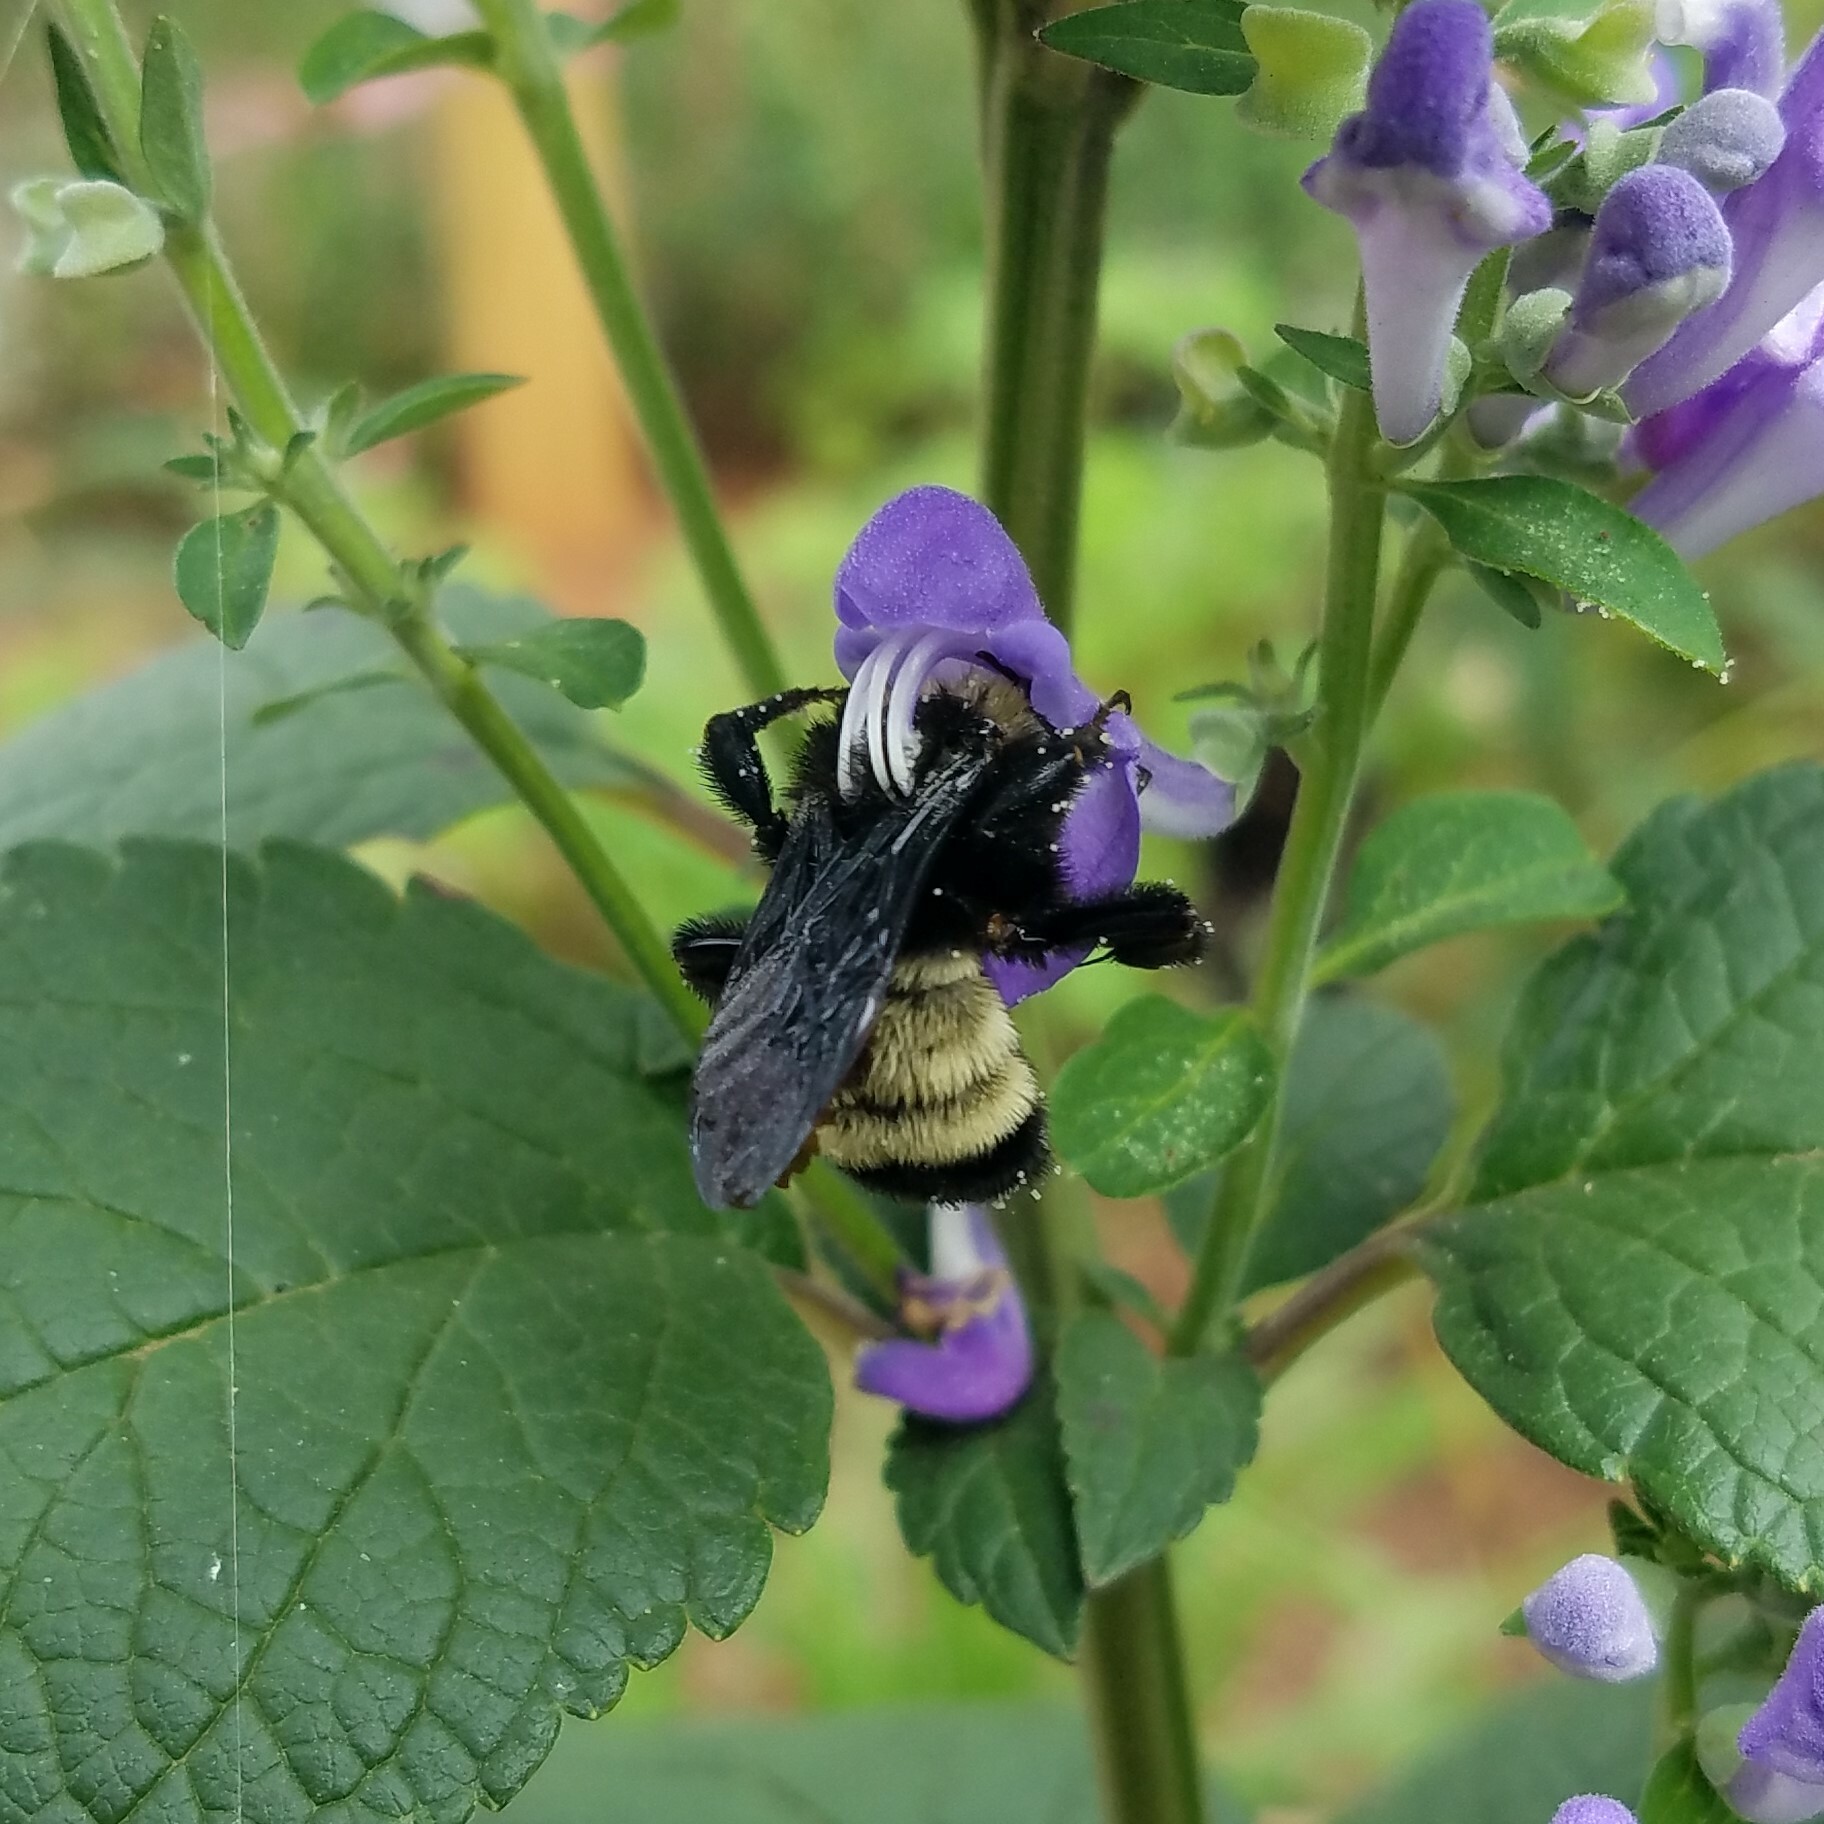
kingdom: Animalia
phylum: Arthropoda
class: Insecta
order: Hymenoptera
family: Apidae
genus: Bombus
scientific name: Bombus pensylvanicus
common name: Bumble bee
